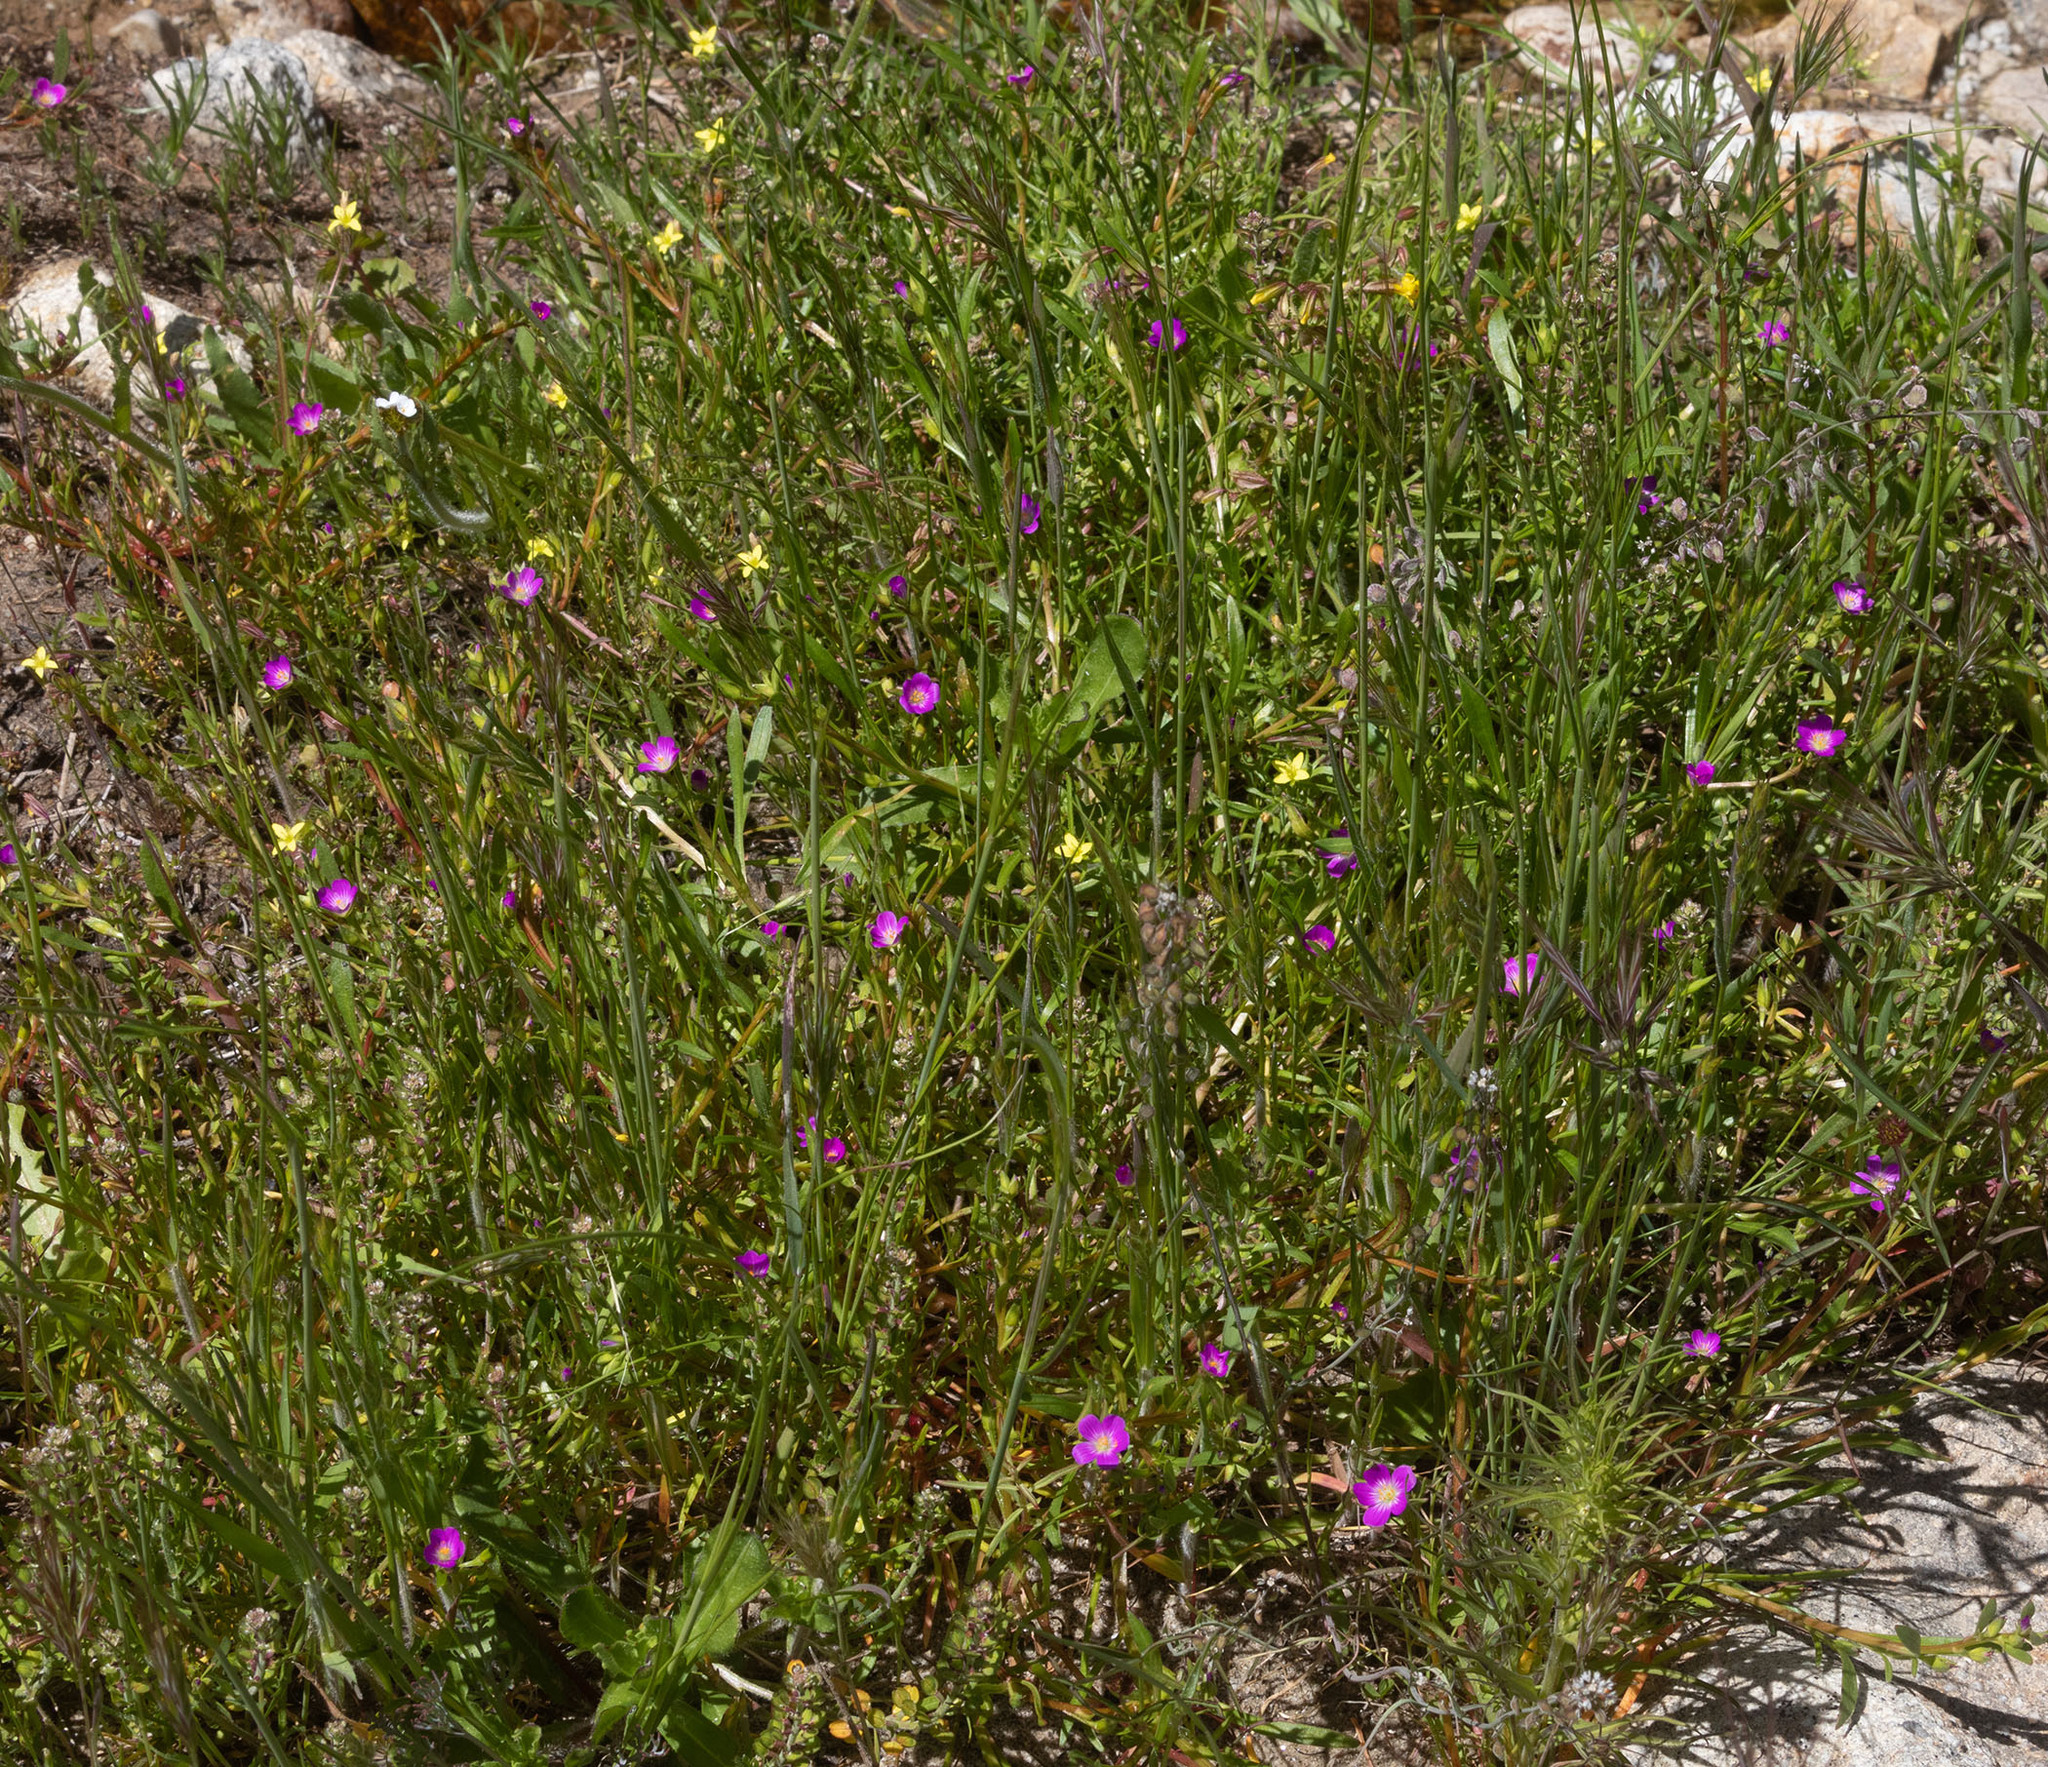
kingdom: Plantae
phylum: Tracheophyta
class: Magnoliopsida
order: Caryophyllales
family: Montiaceae
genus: Calandrinia
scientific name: Calandrinia menziesii
